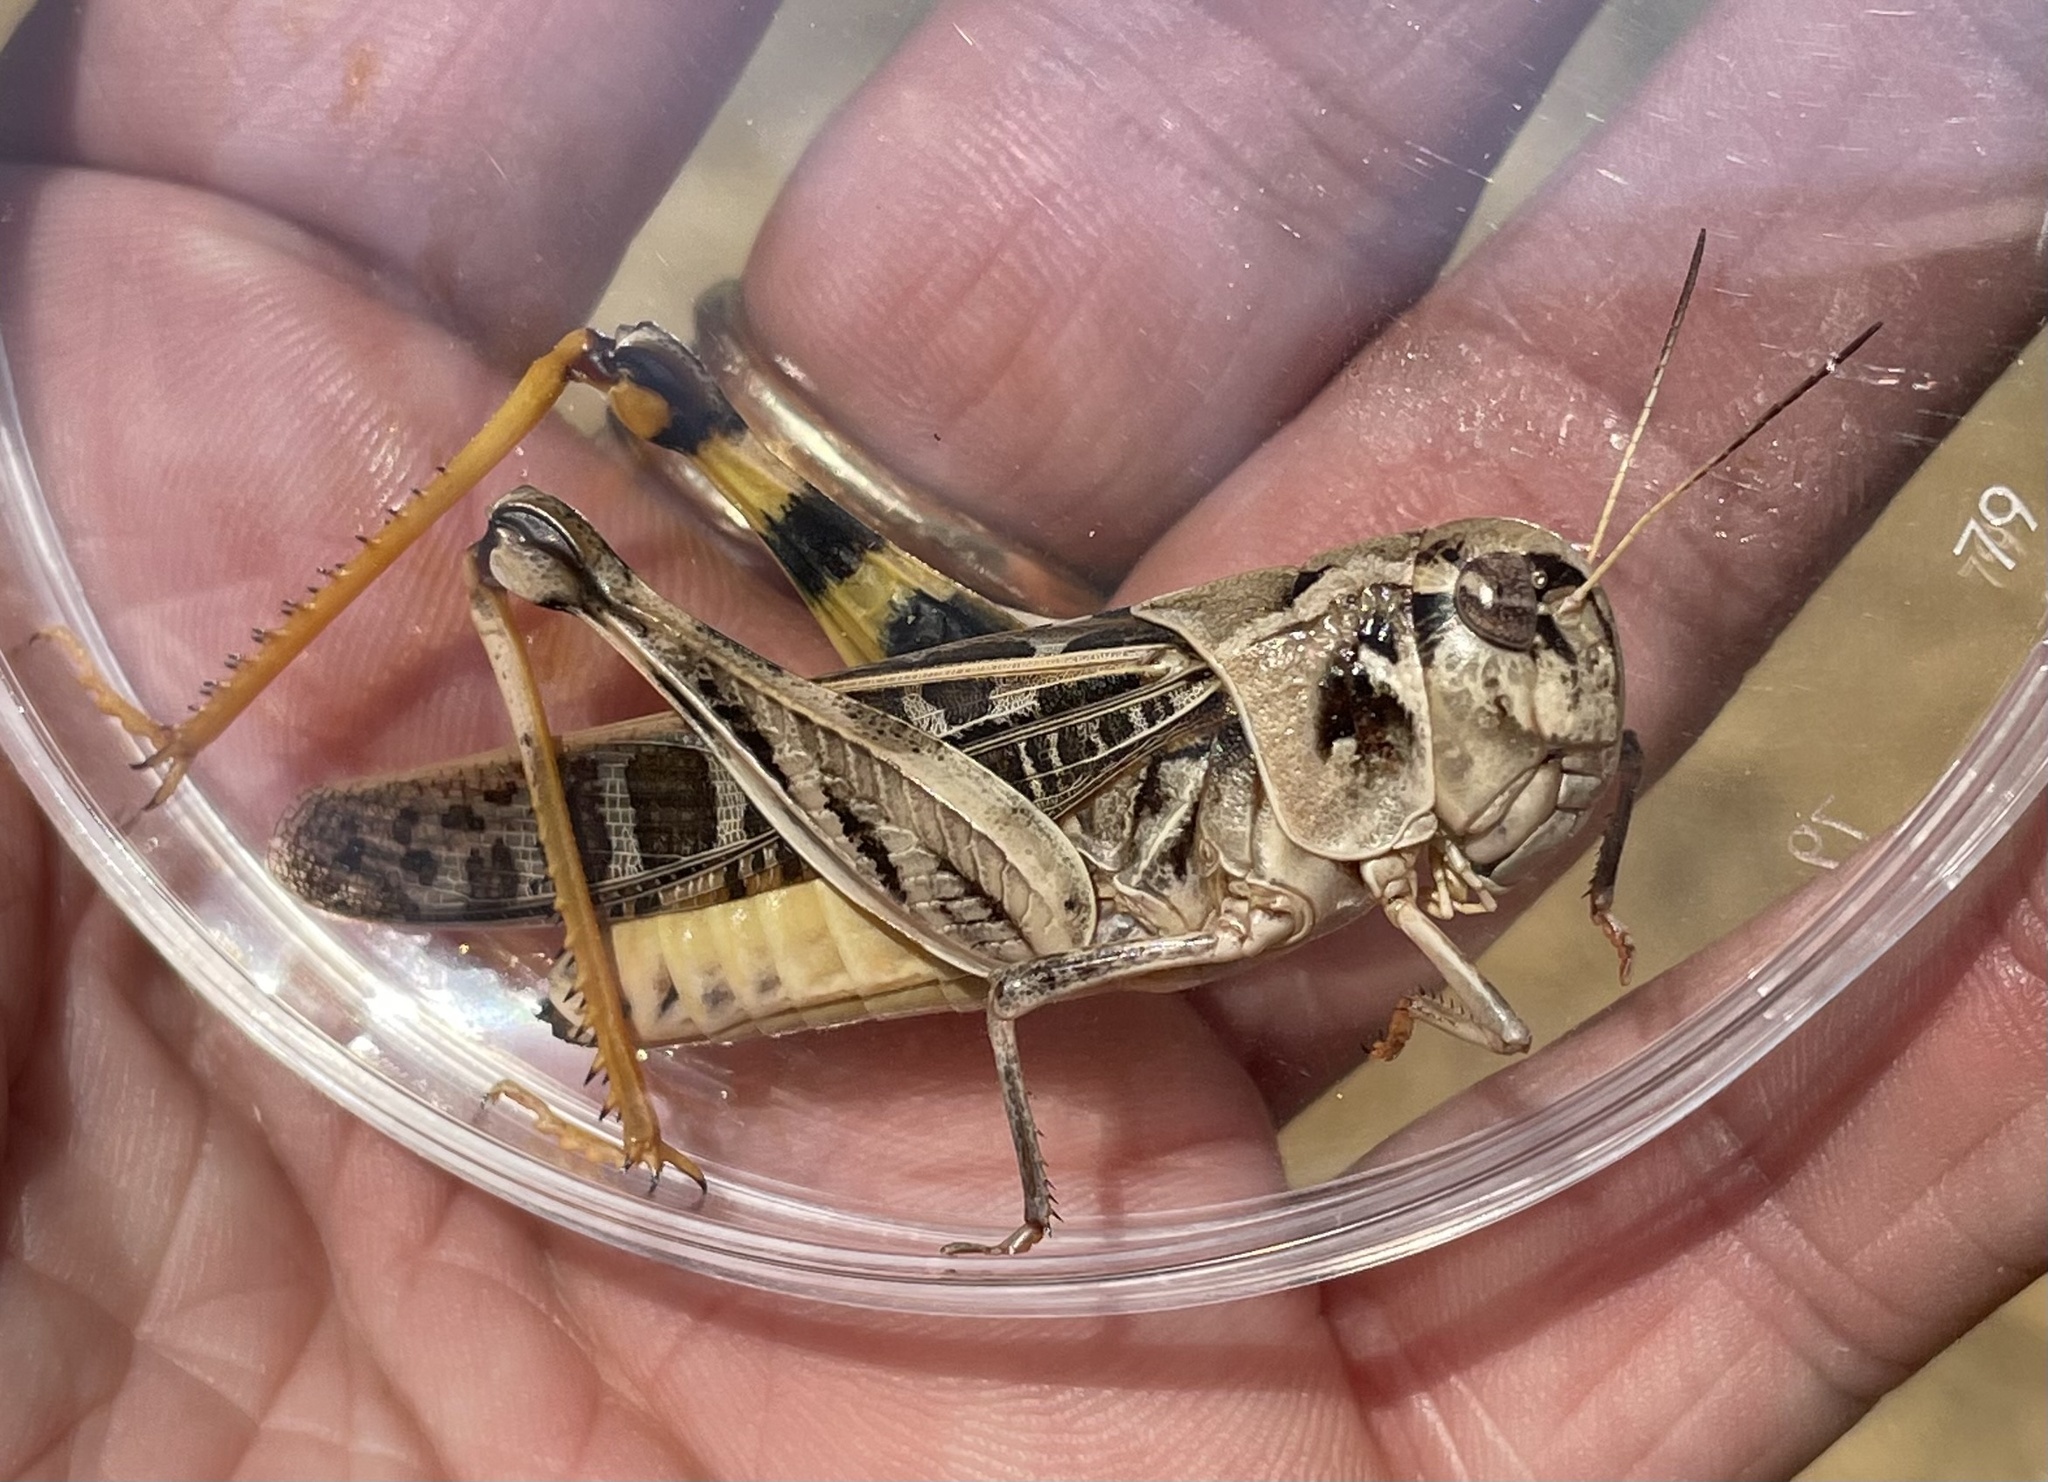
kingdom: Animalia
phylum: Arthropoda
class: Insecta
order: Orthoptera
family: Acrididae
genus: Hippiscus
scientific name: Hippiscus ocelote
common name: Wrinkled grasshopper
